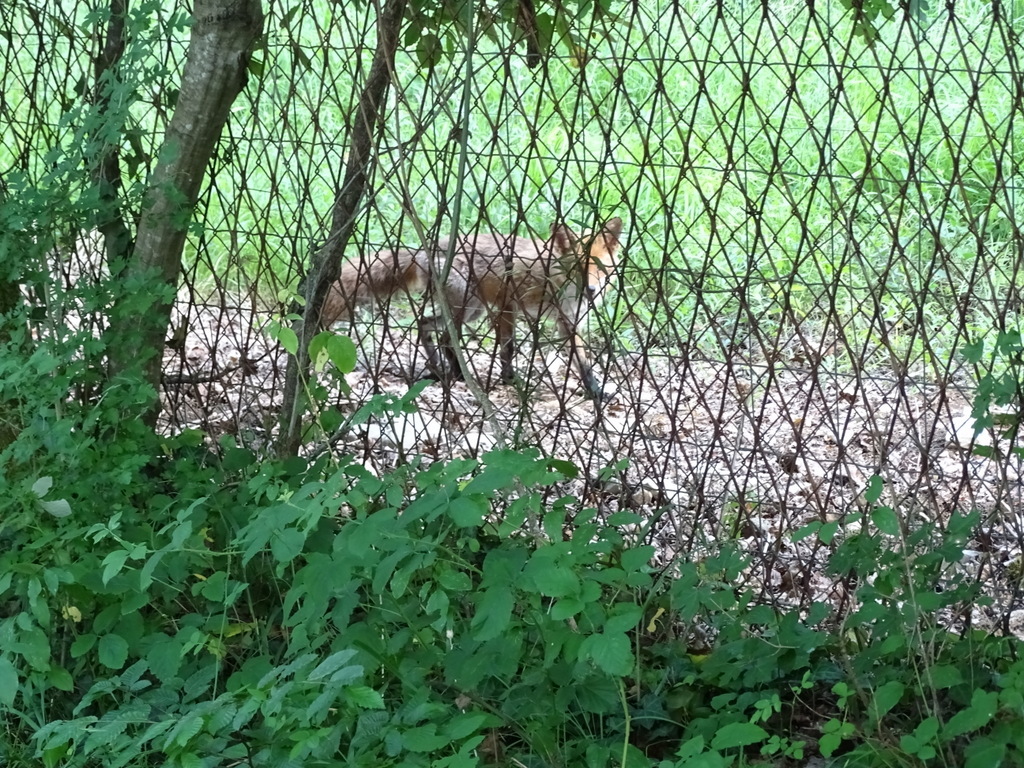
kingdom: Animalia
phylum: Chordata
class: Mammalia
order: Carnivora
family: Canidae
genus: Vulpes
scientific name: Vulpes vulpes
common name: Red fox
